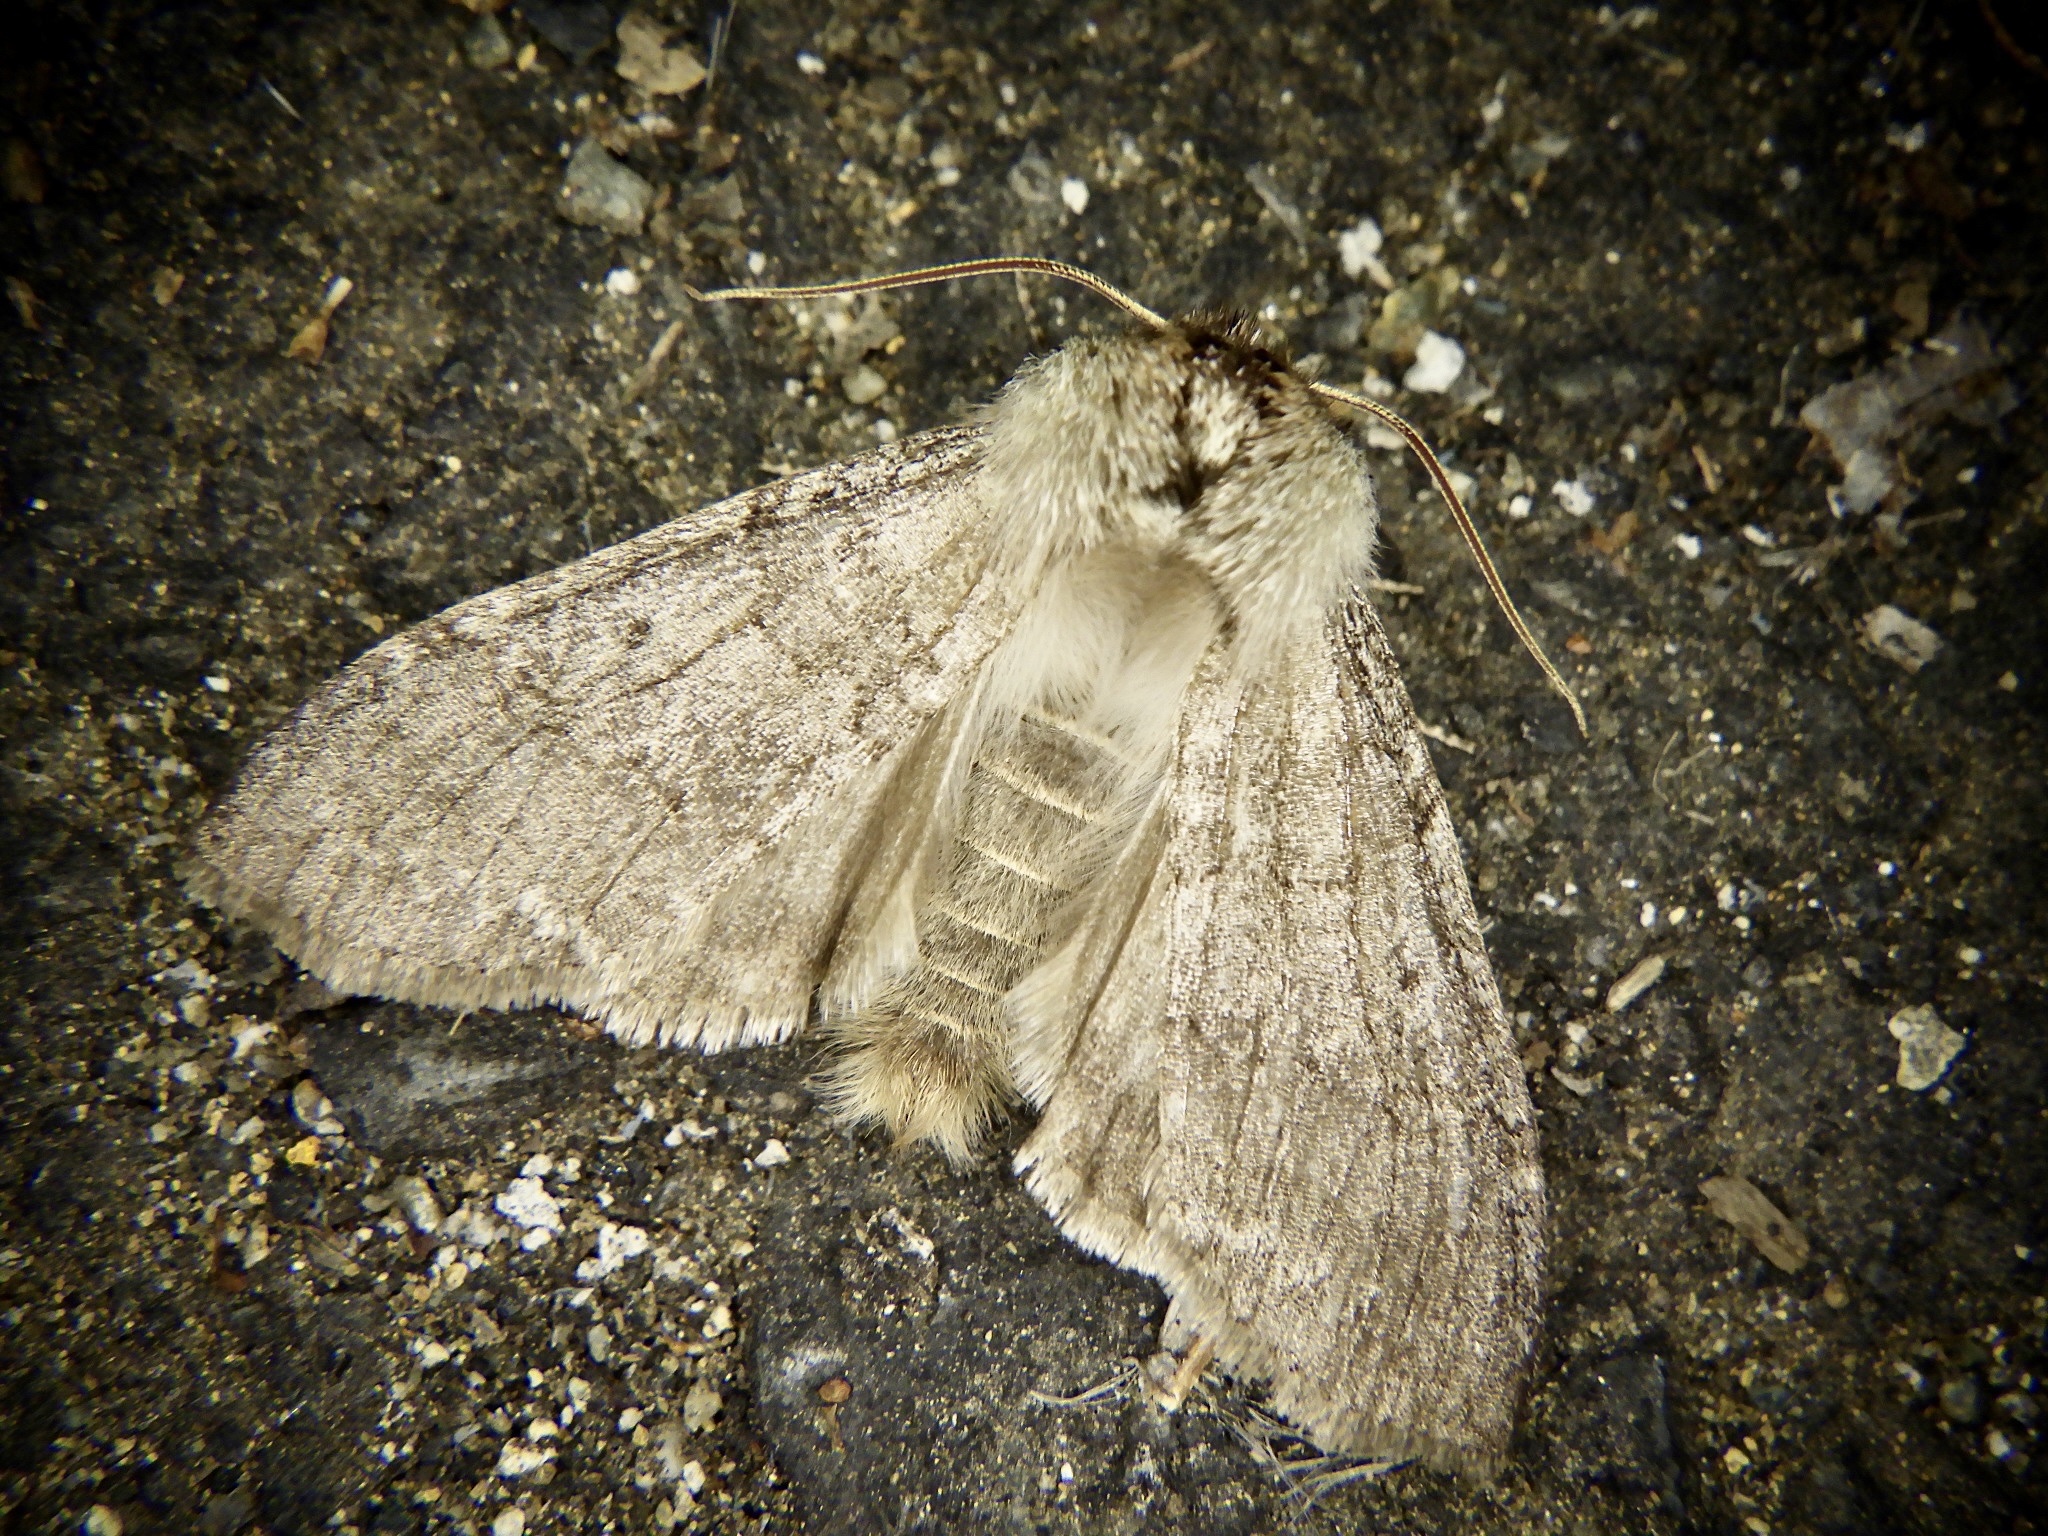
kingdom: Animalia
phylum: Arthropoda
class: Insecta
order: Lepidoptera
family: Drepanidae
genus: Achlya
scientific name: Achlya kuramana
